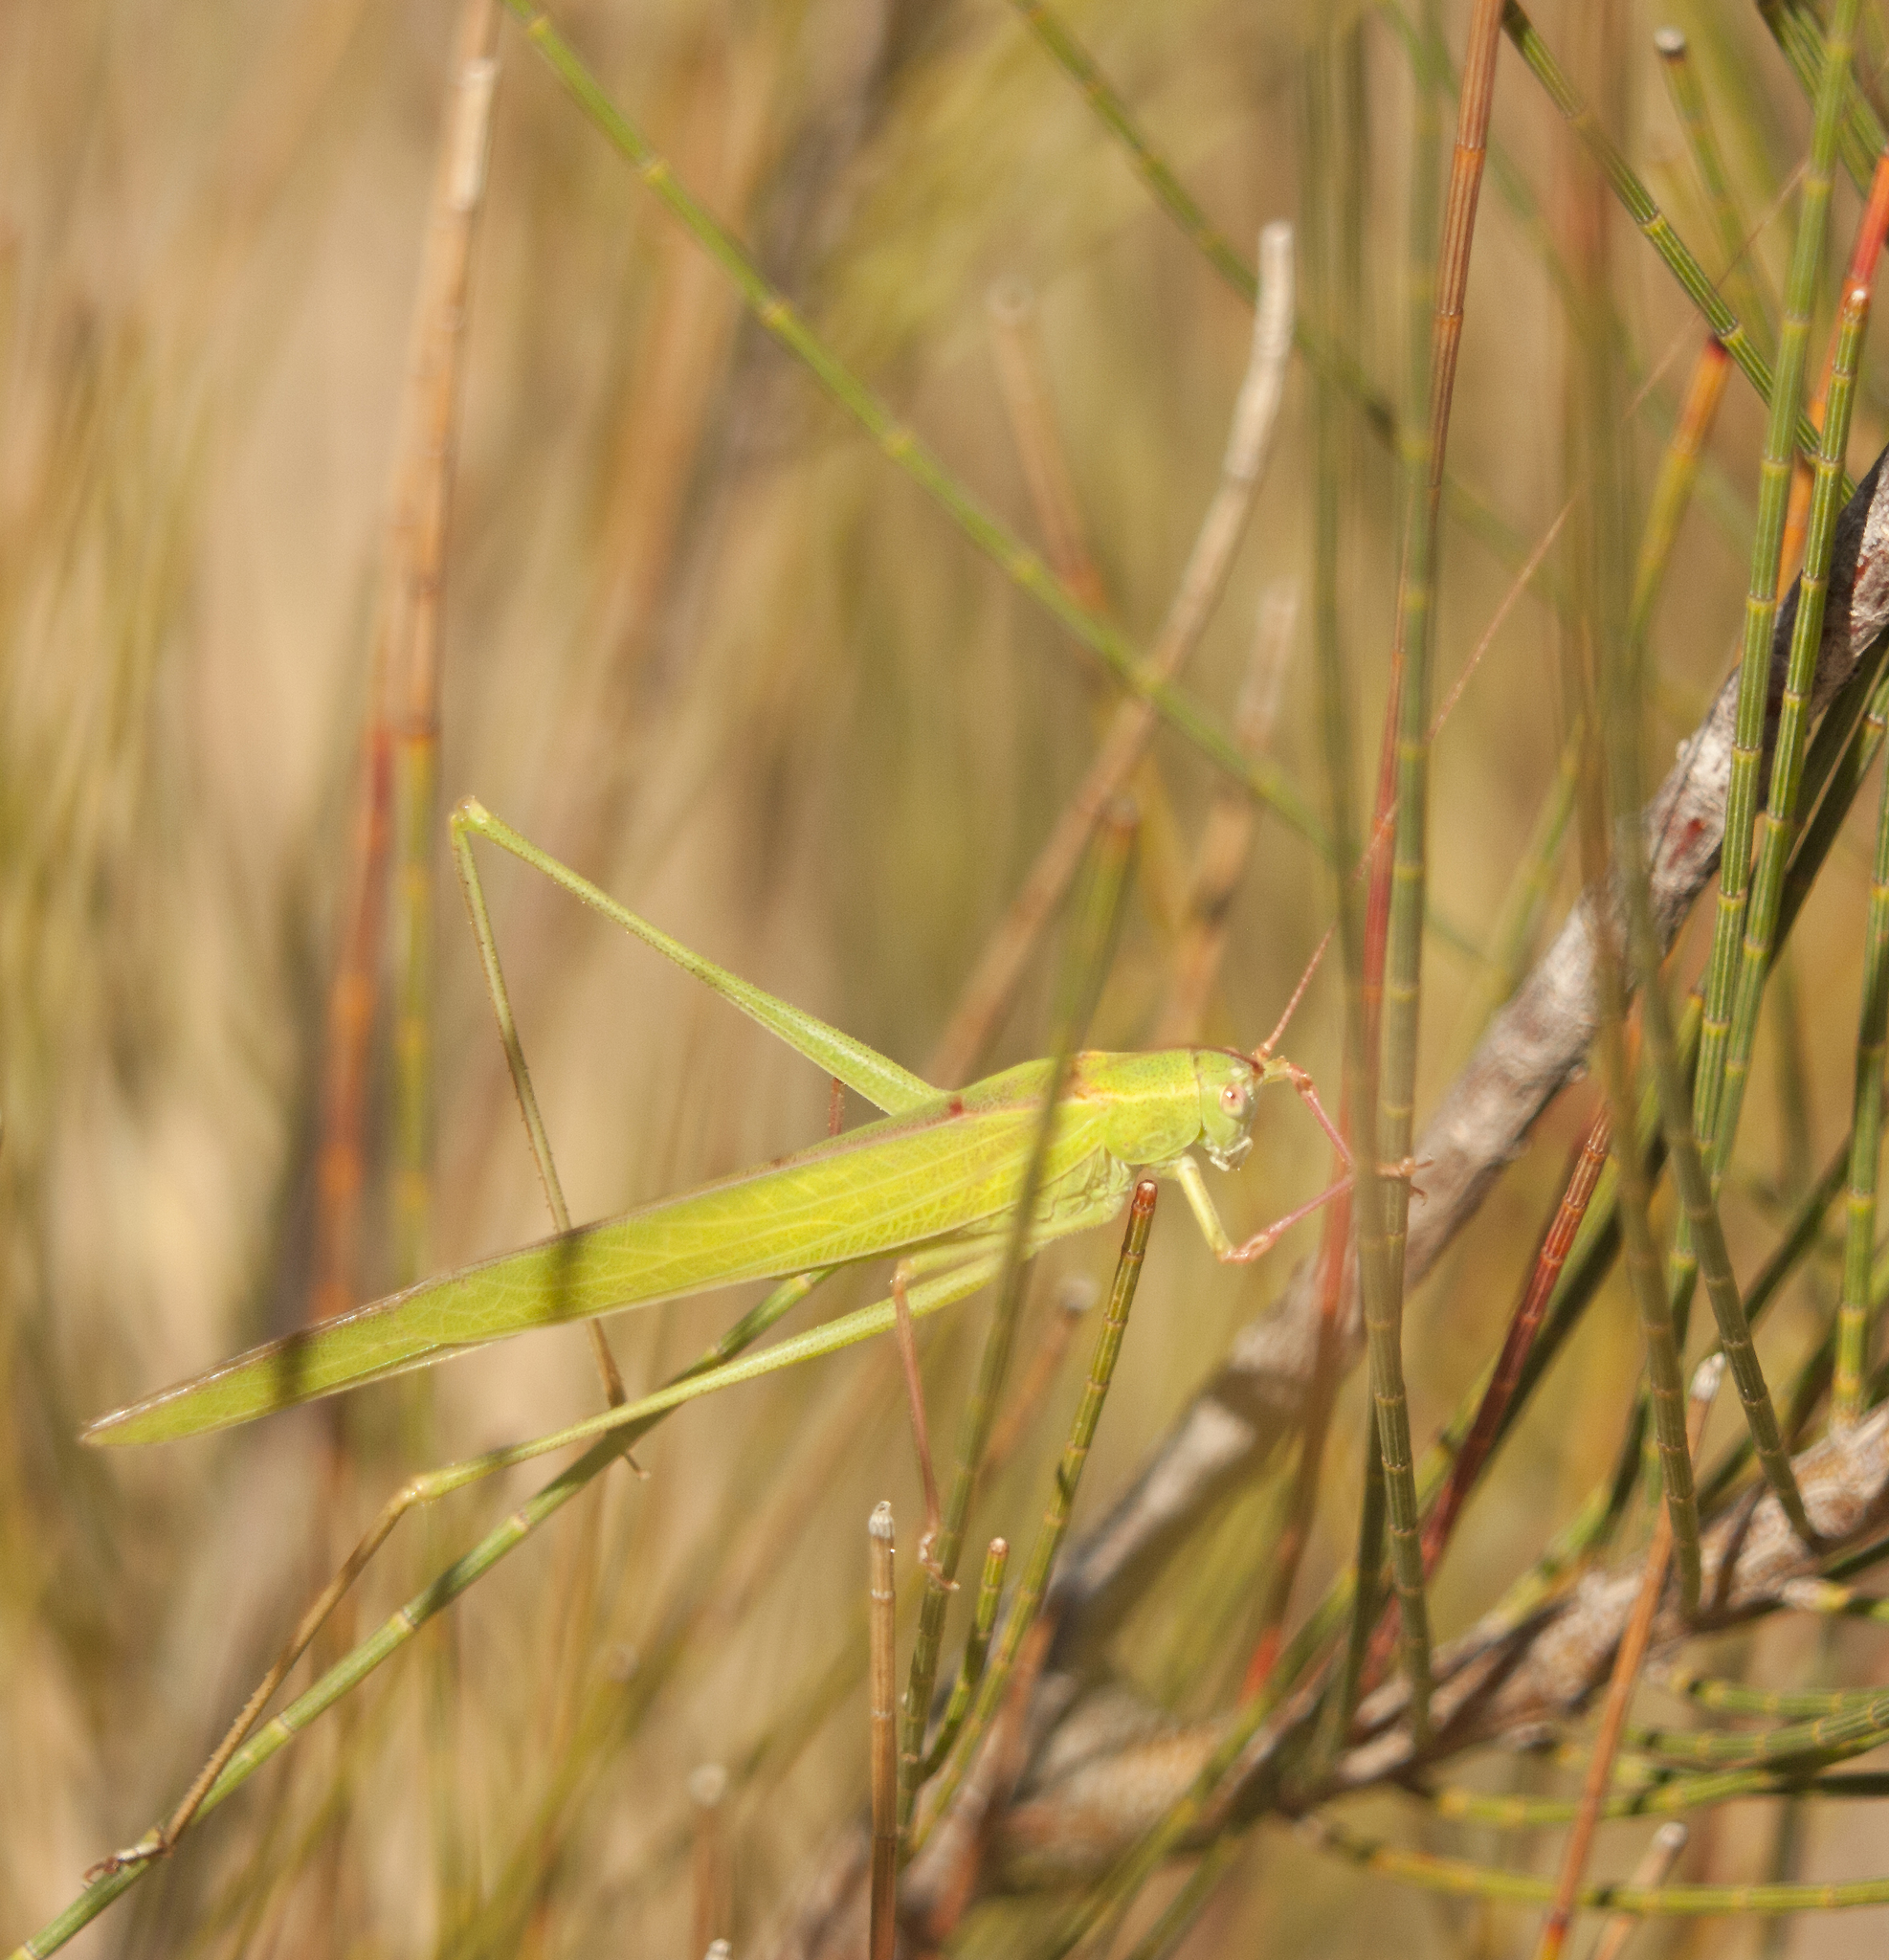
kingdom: Animalia
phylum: Arthropoda
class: Insecta
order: Orthoptera
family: Tettigoniidae
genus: Phaneroptera
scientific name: Phaneroptera gracilis
